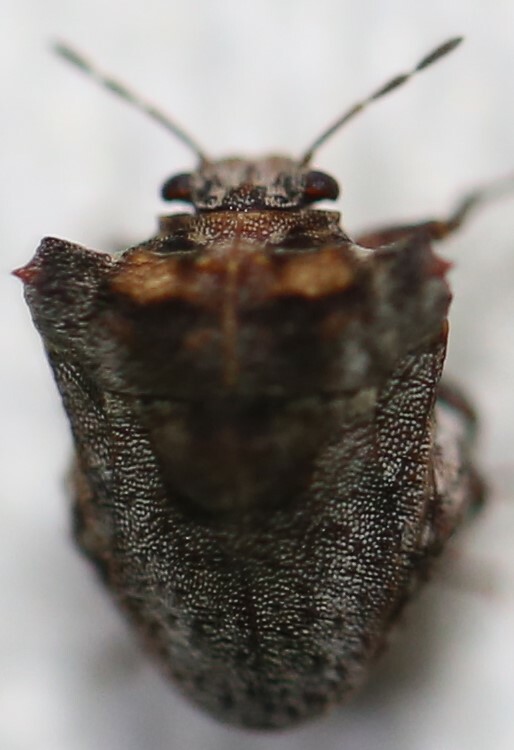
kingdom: Animalia
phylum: Arthropoda
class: Insecta
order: Hemiptera
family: Pentatomidae
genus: Eufroggattia
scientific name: Eufroggattia
